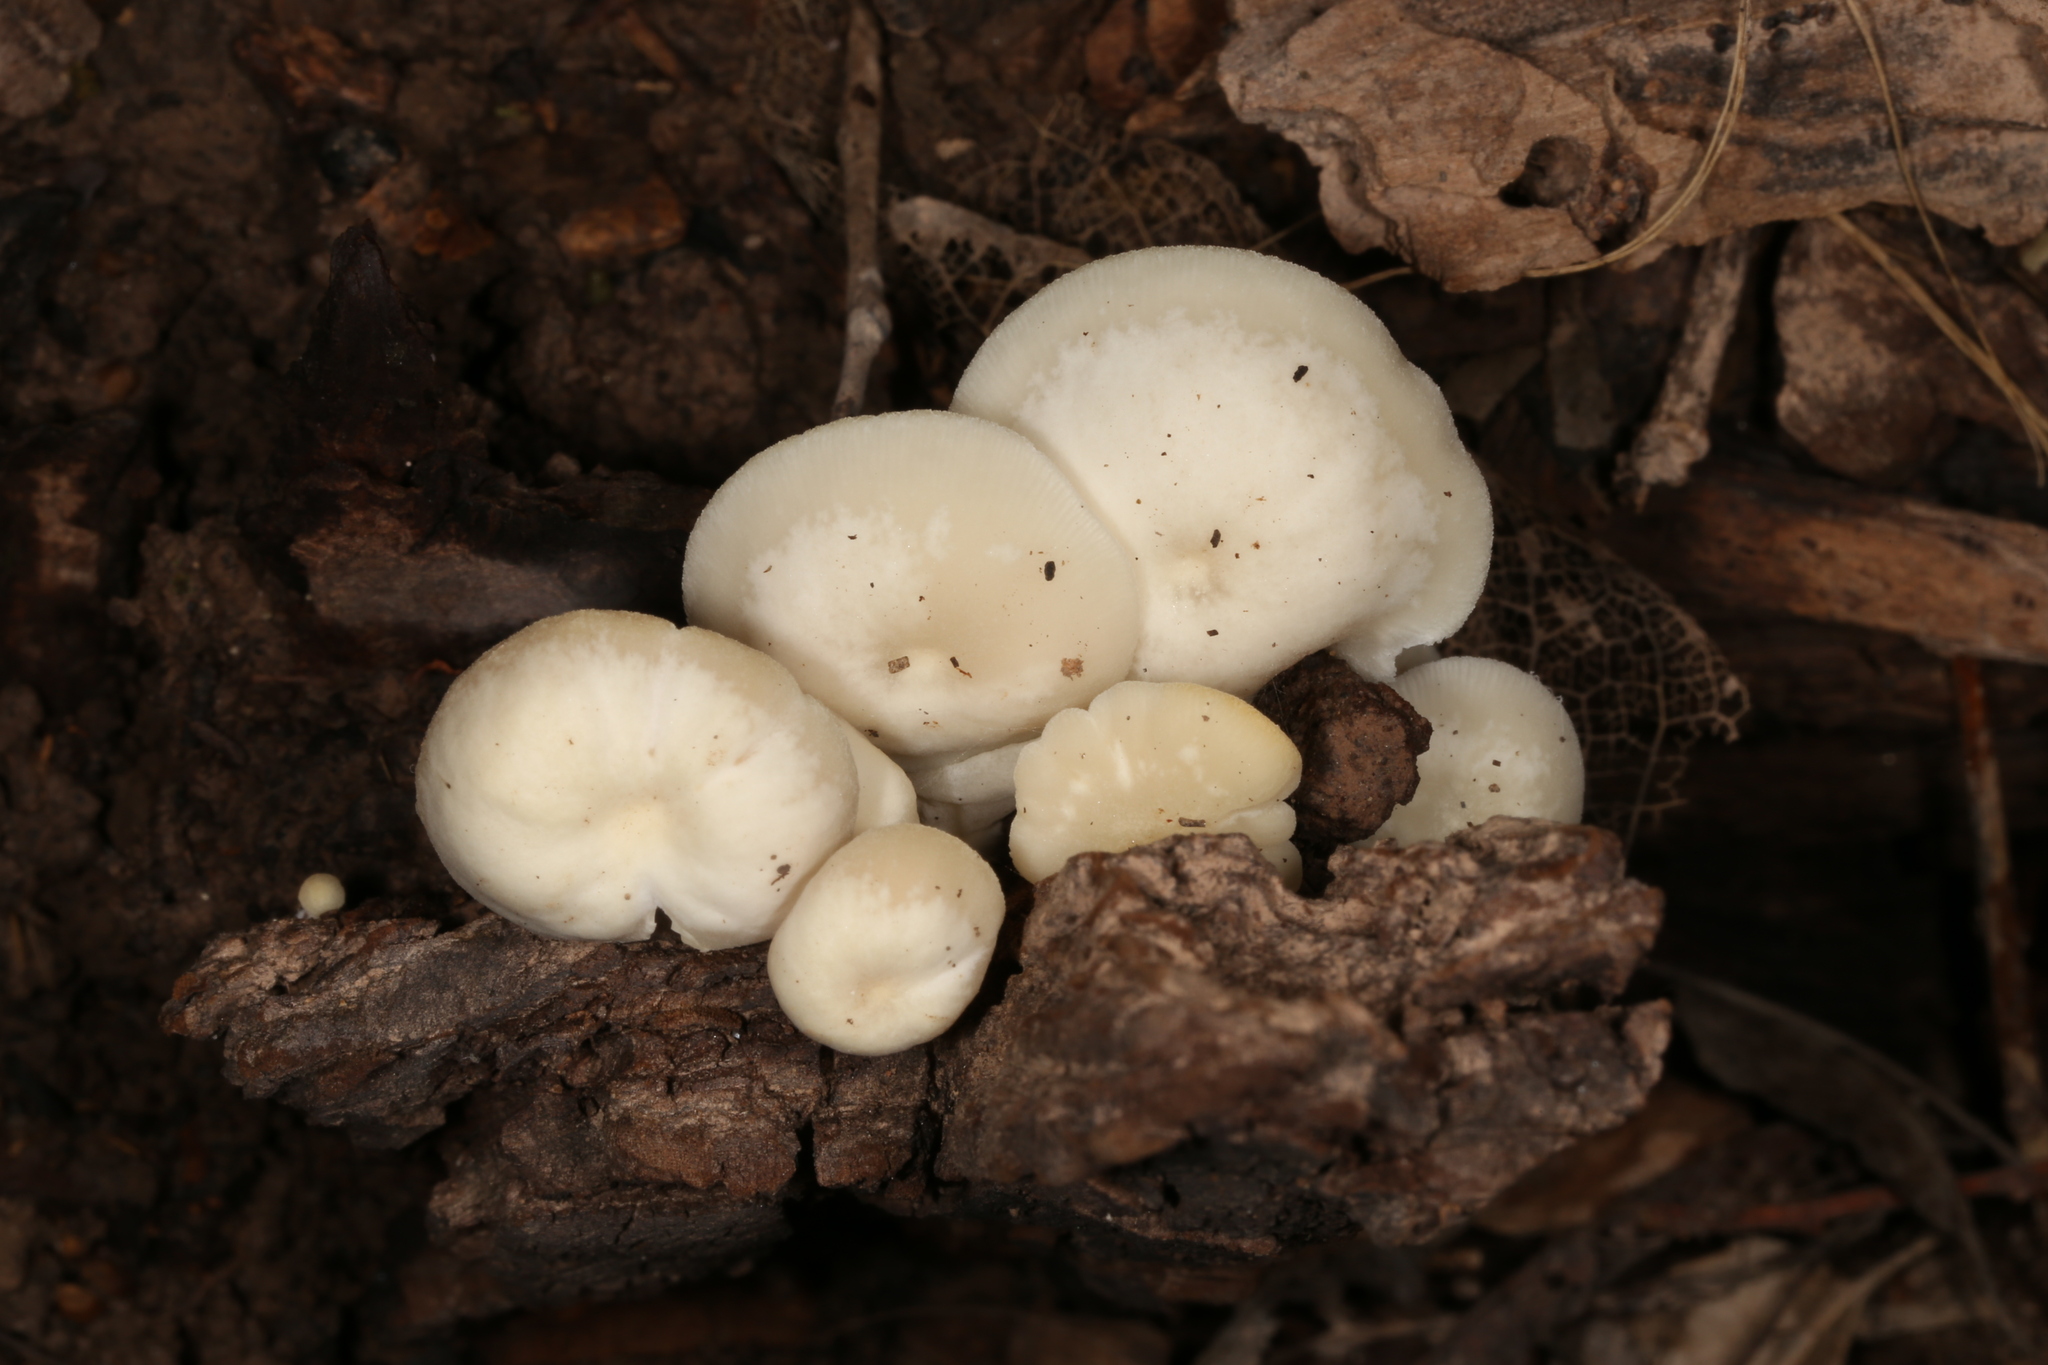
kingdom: Fungi
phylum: Basidiomycota
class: Agaricomycetes
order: Agaricales
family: Marasmiaceae
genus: Lactocollybia
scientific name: Lactocollybia variicystis
